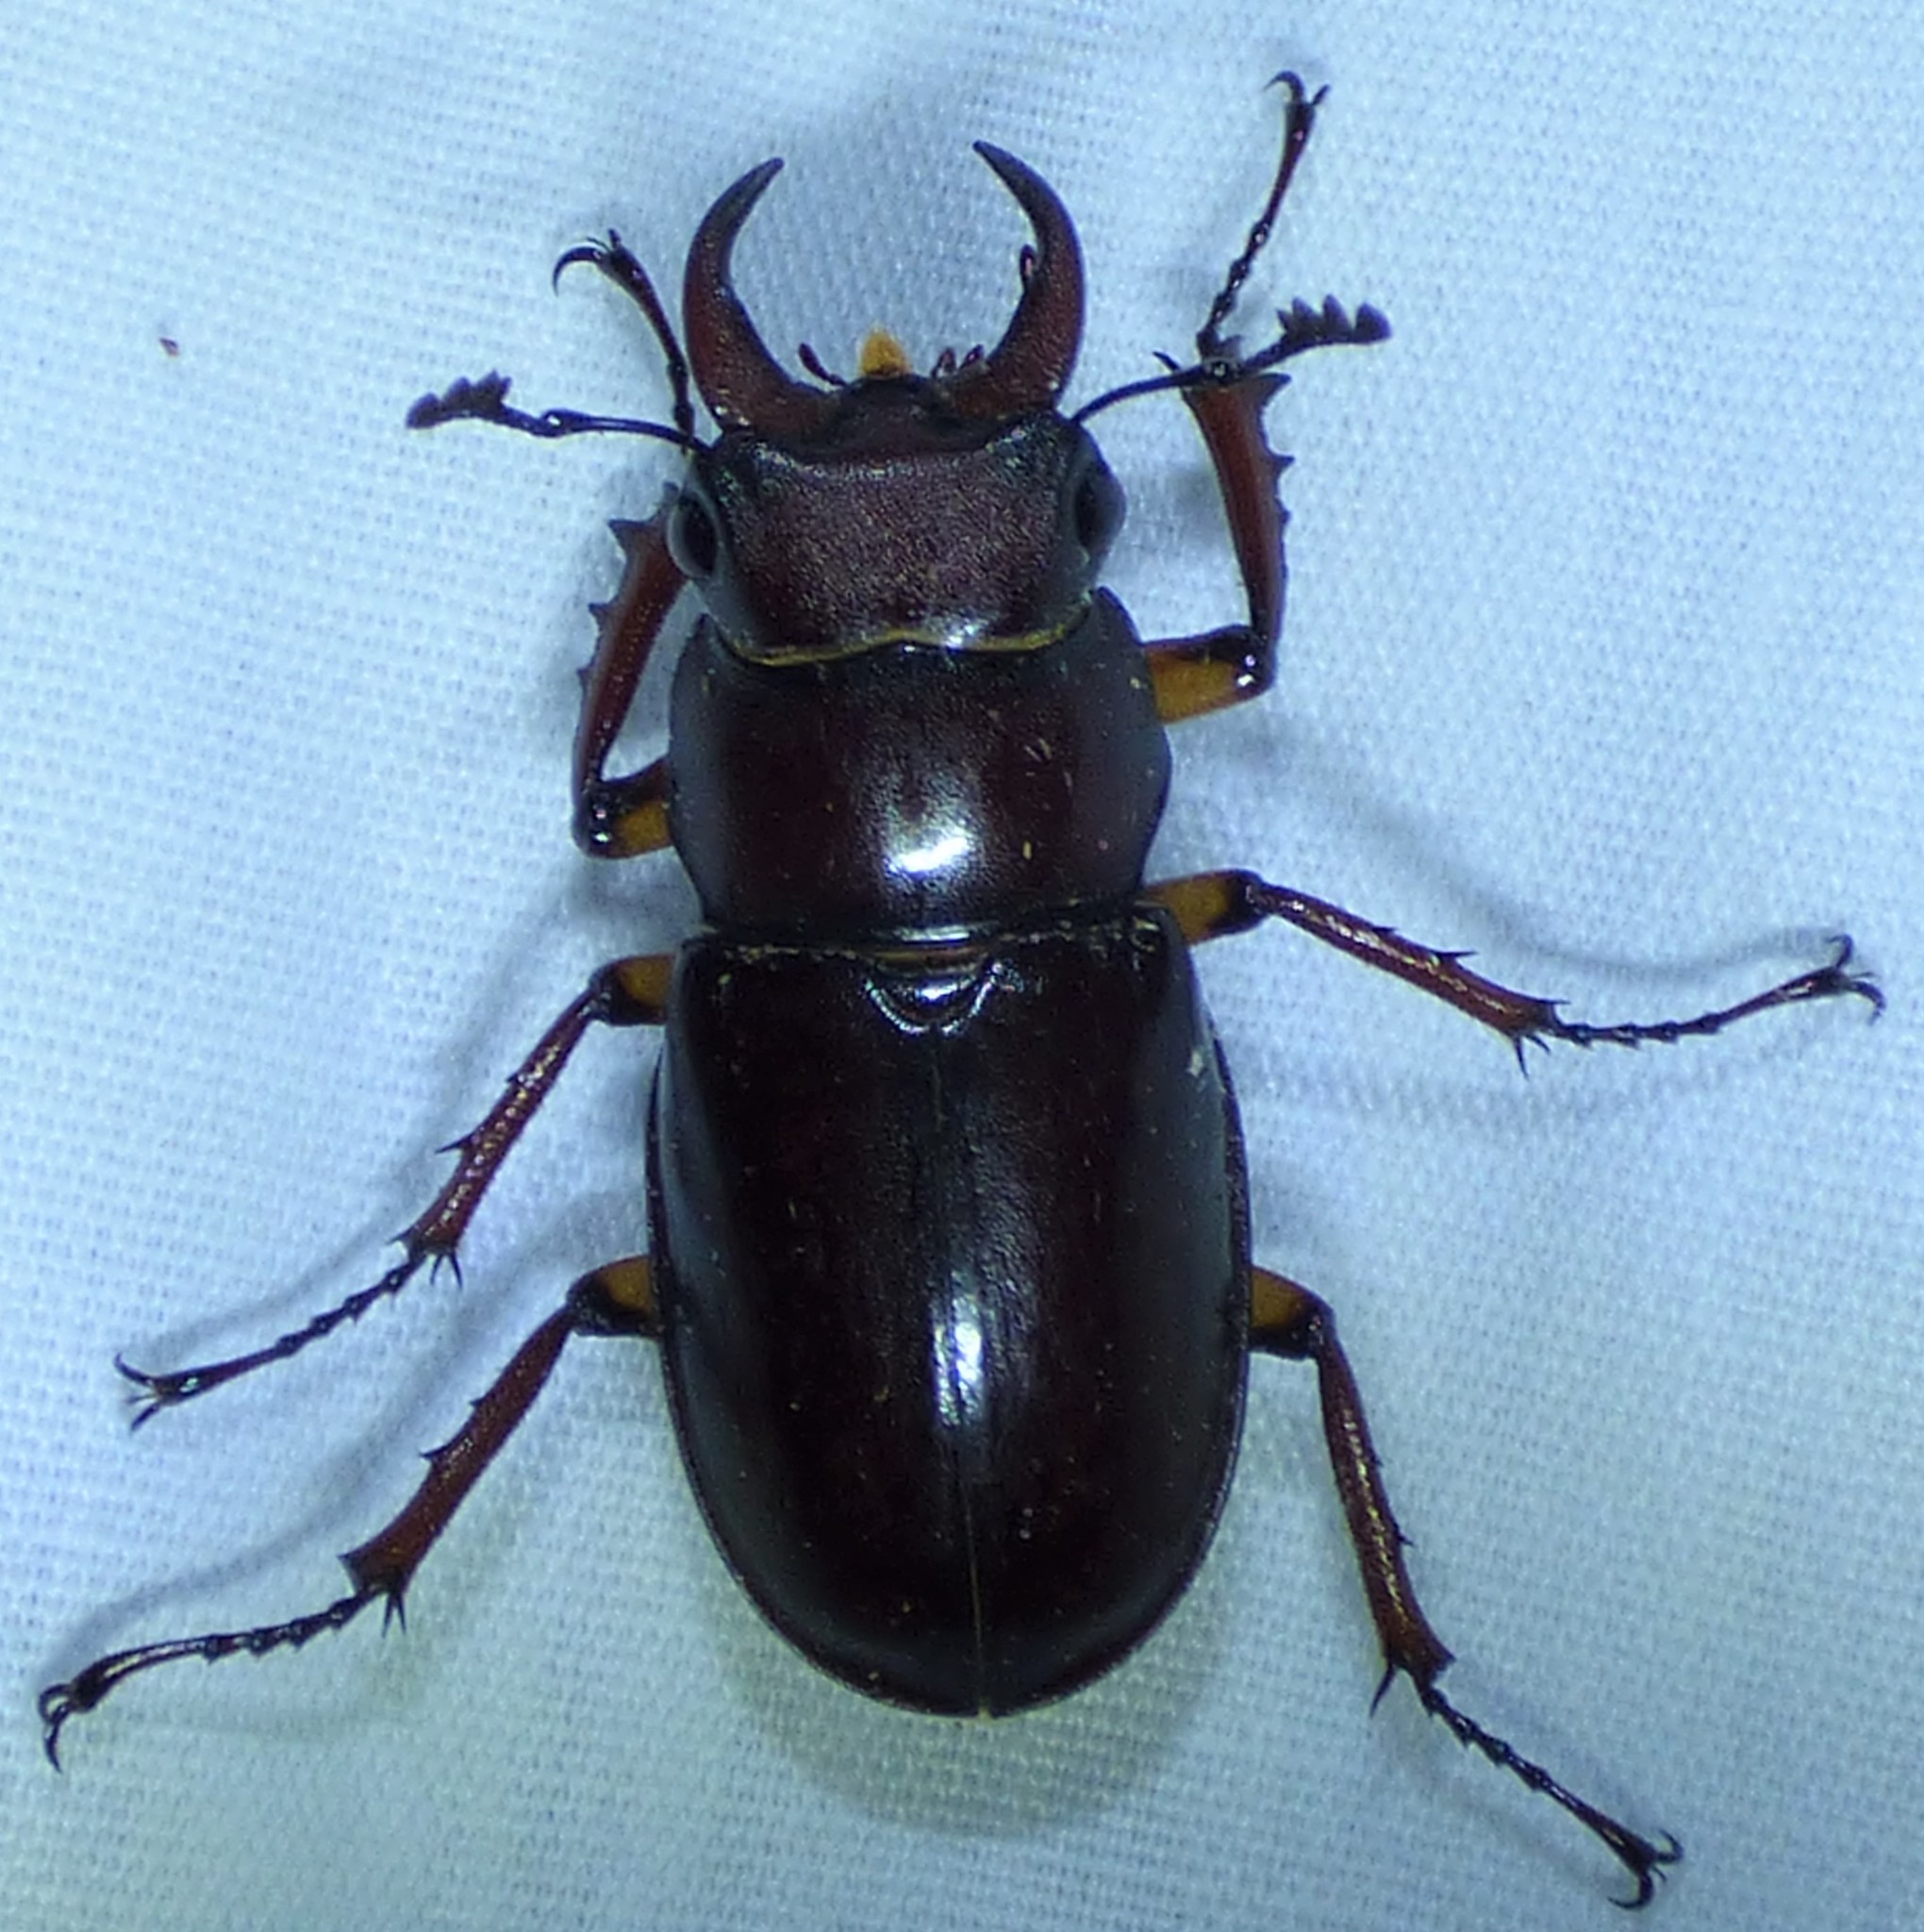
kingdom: Animalia
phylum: Arthropoda
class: Insecta
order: Coleoptera
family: Lucanidae
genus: Lucanus
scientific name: Lucanus capreolus
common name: Stag beetle
